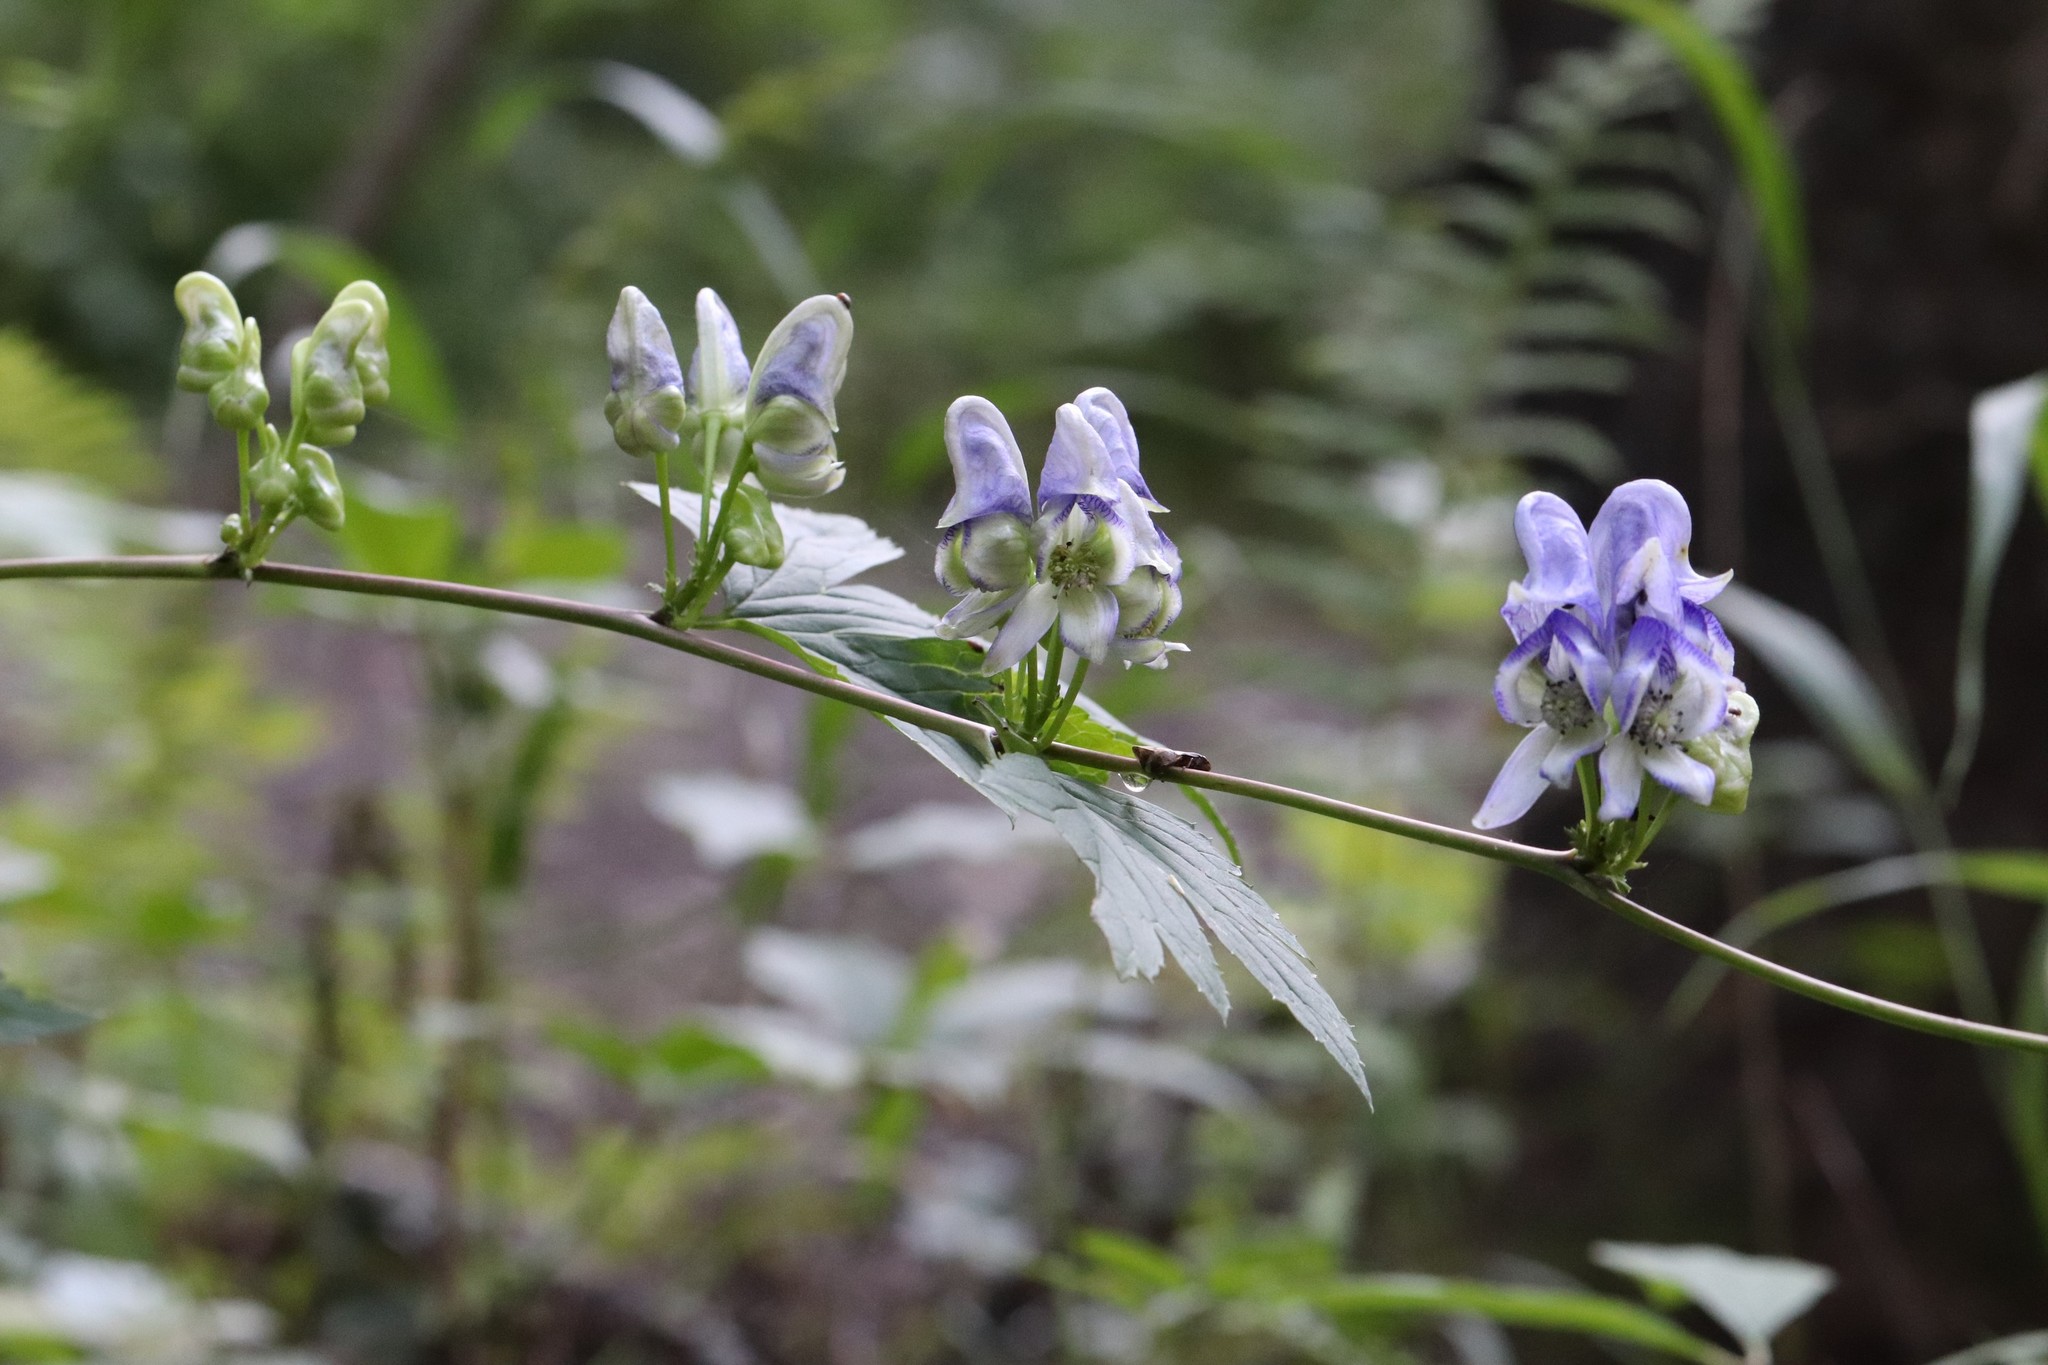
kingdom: Plantae
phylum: Tracheophyta
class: Magnoliopsida
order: Ranunculales
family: Ranunculaceae
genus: Aconitum
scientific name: Aconitum sczukinii
